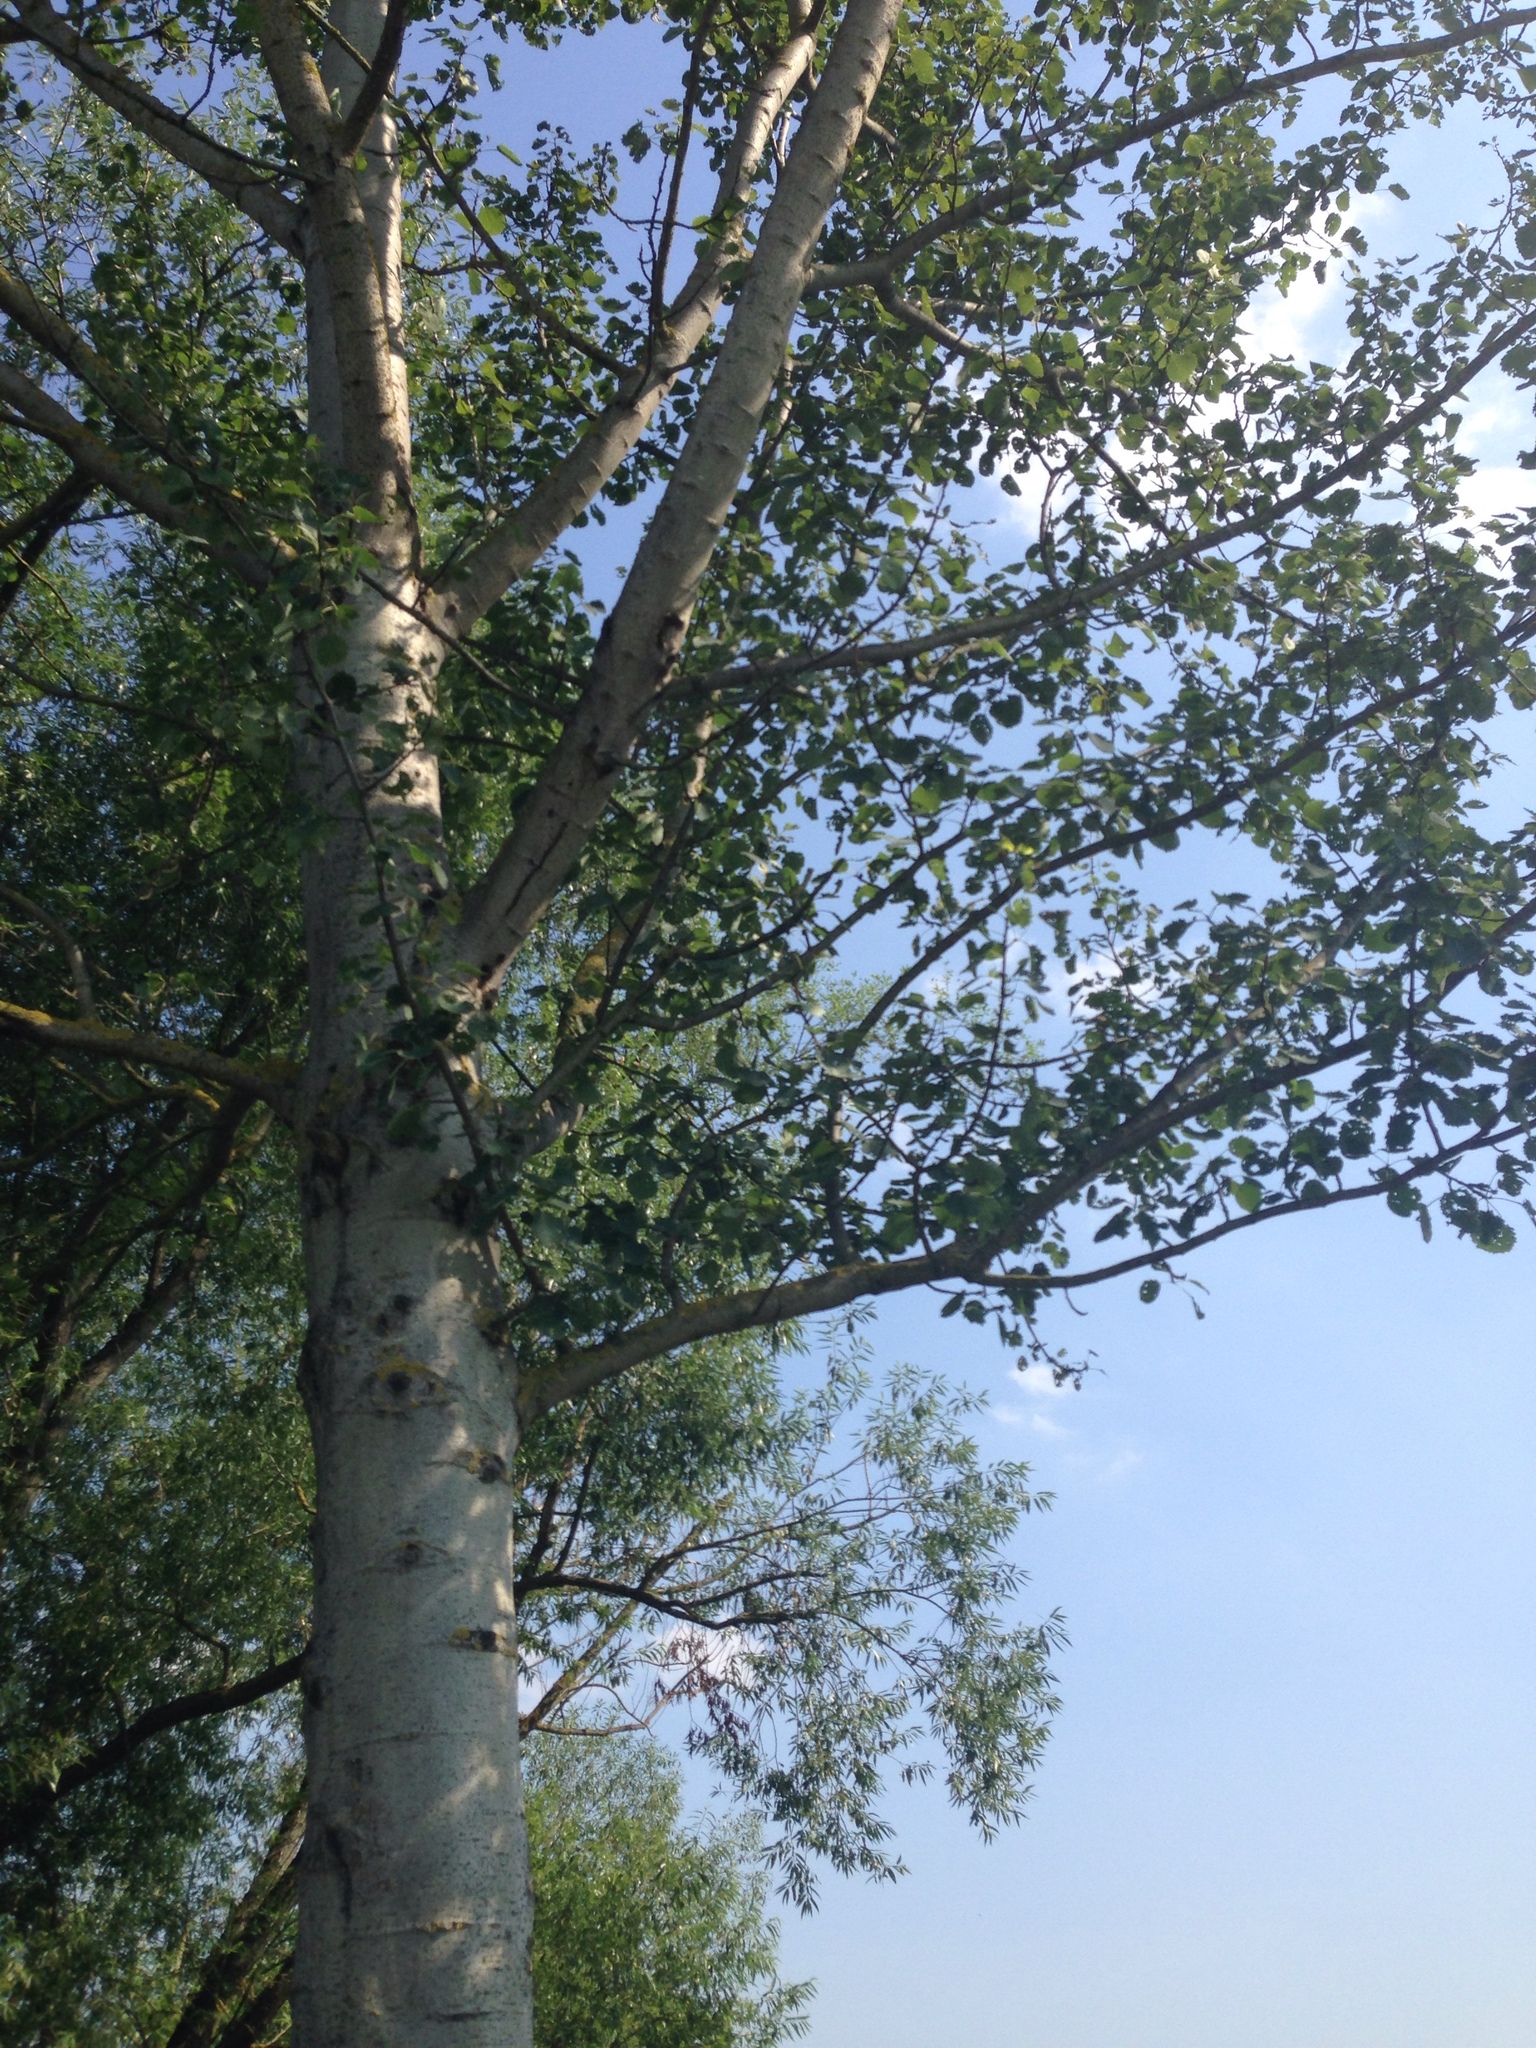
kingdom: Plantae
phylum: Tracheophyta
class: Magnoliopsida
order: Malpighiales
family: Salicaceae
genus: Populus
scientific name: Populus tremula
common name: European aspen
